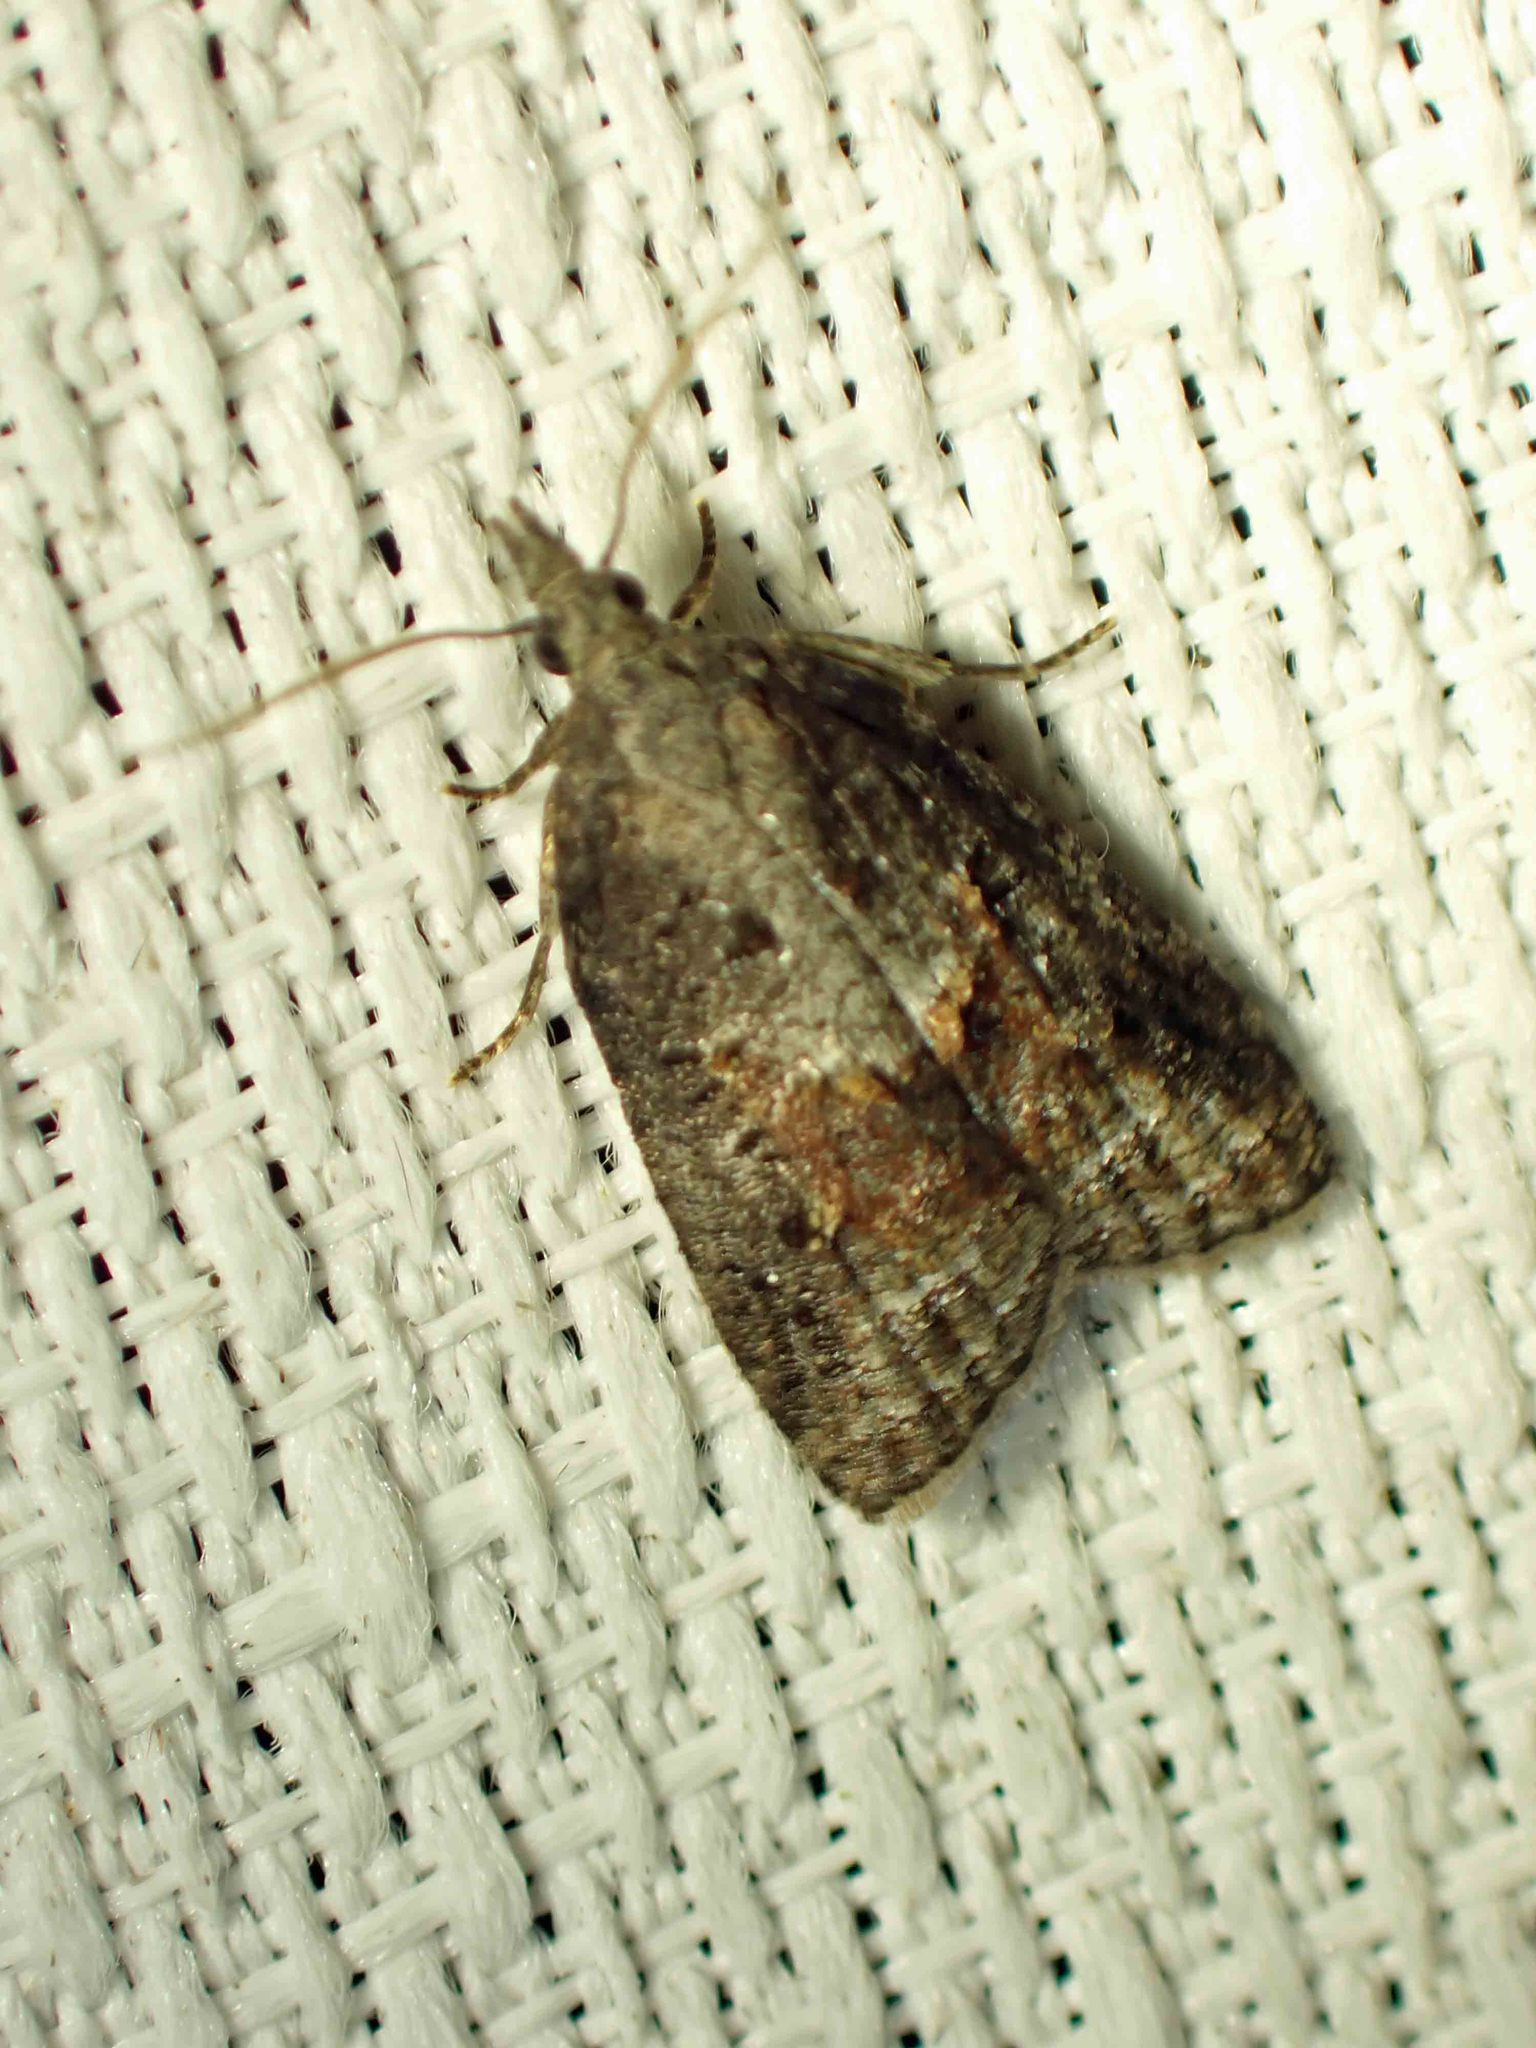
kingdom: Animalia
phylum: Arthropoda
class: Insecta
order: Lepidoptera
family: Tortricidae
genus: Platynota
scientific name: Platynota idaeusalis
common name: Tufted apple bud moth
